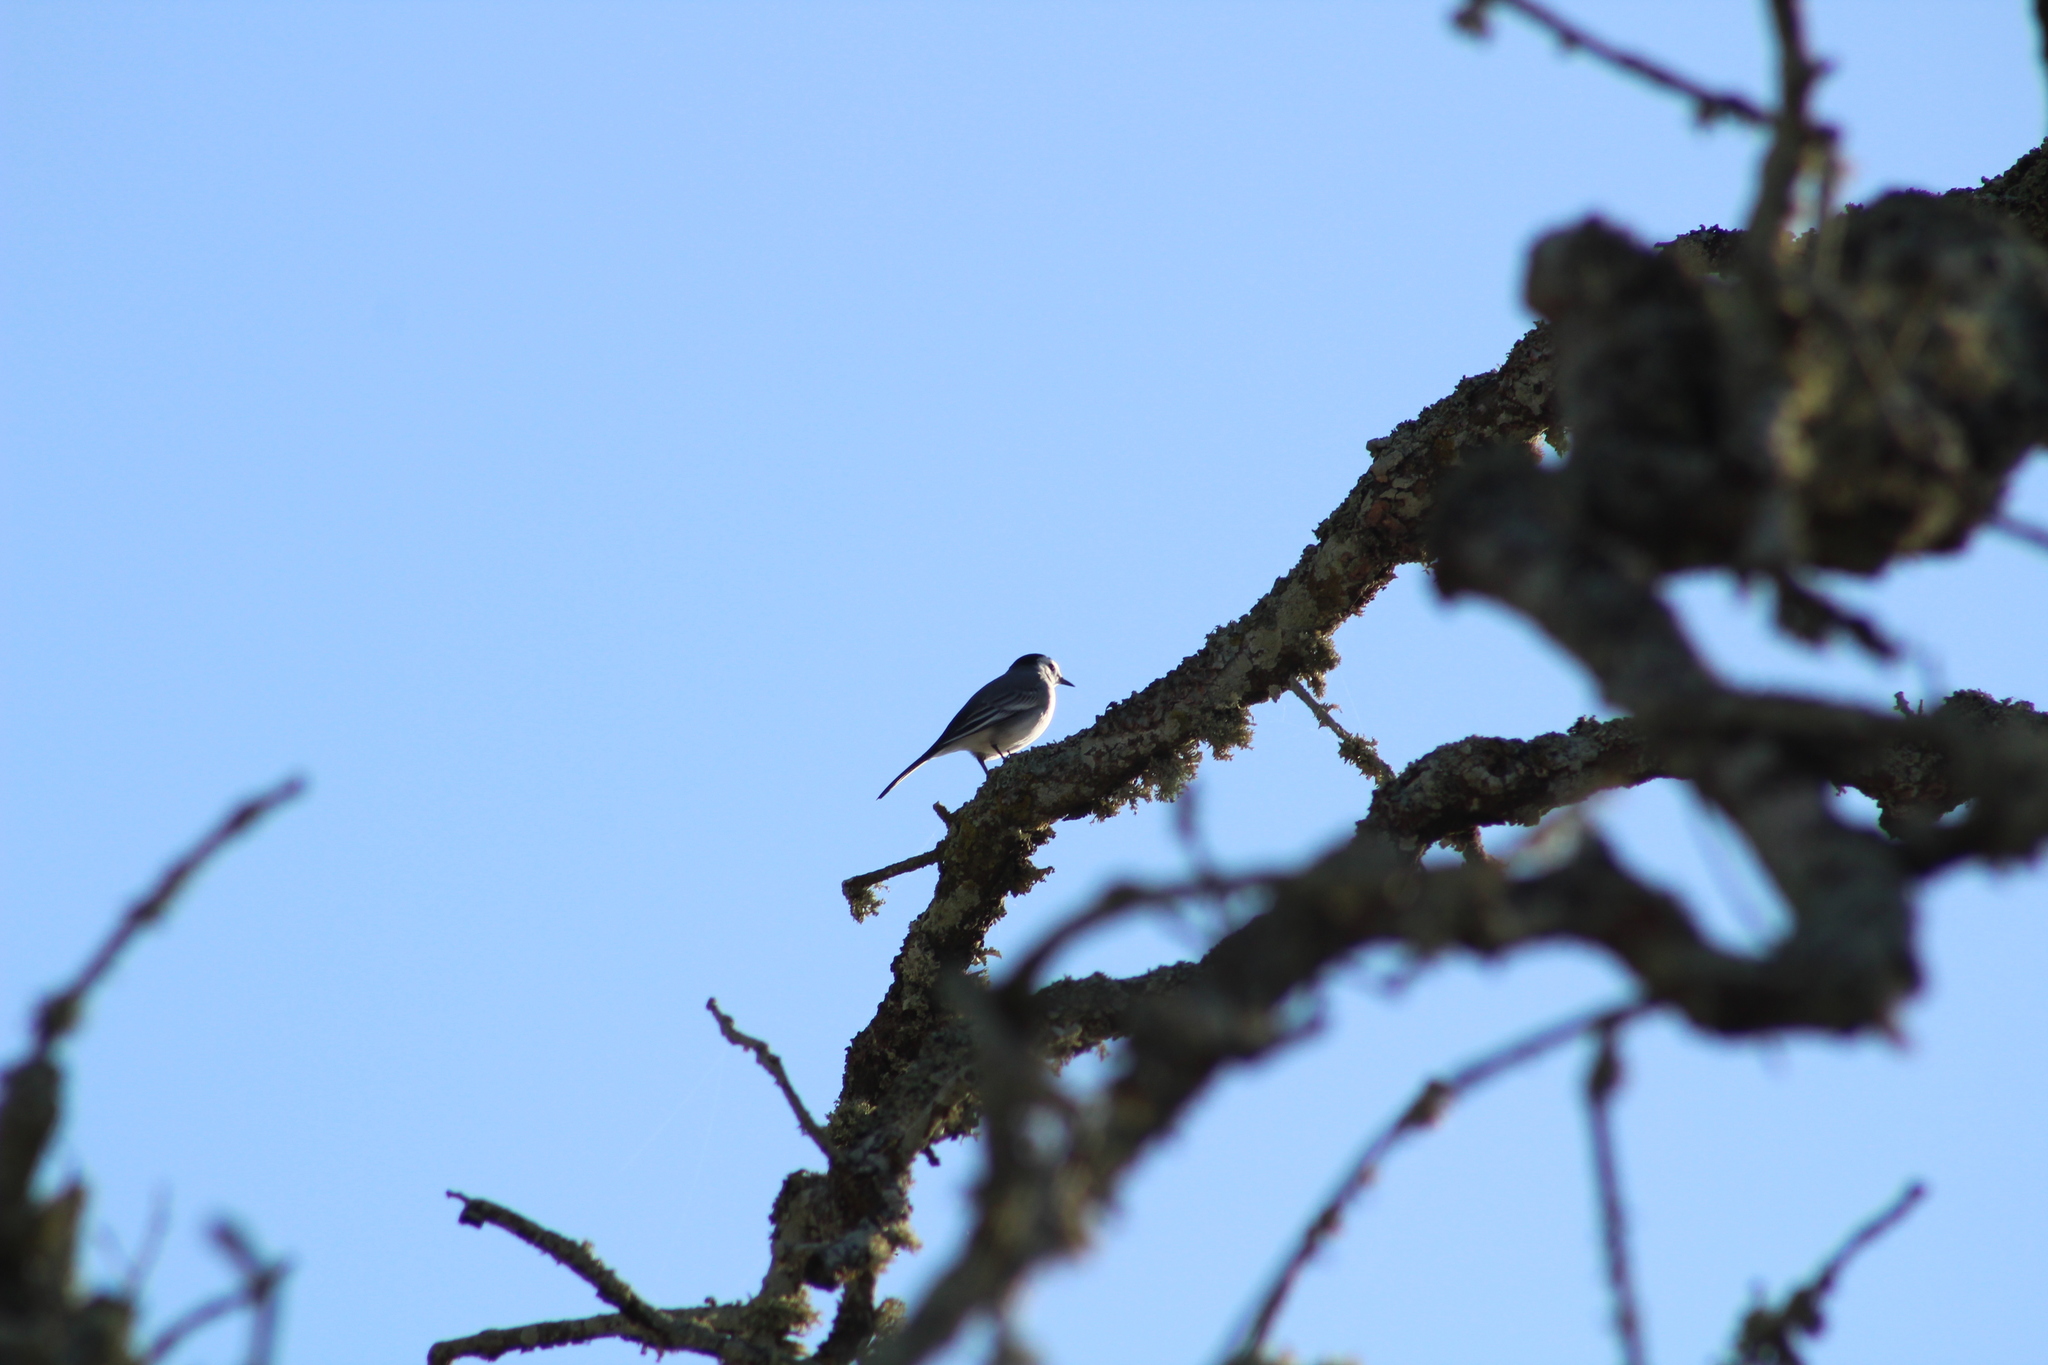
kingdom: Animalia
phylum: Chordata
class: Aves
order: Passeriformes
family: Motacillidae
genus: Motacilla
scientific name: Motacilla alba
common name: White wagtail
